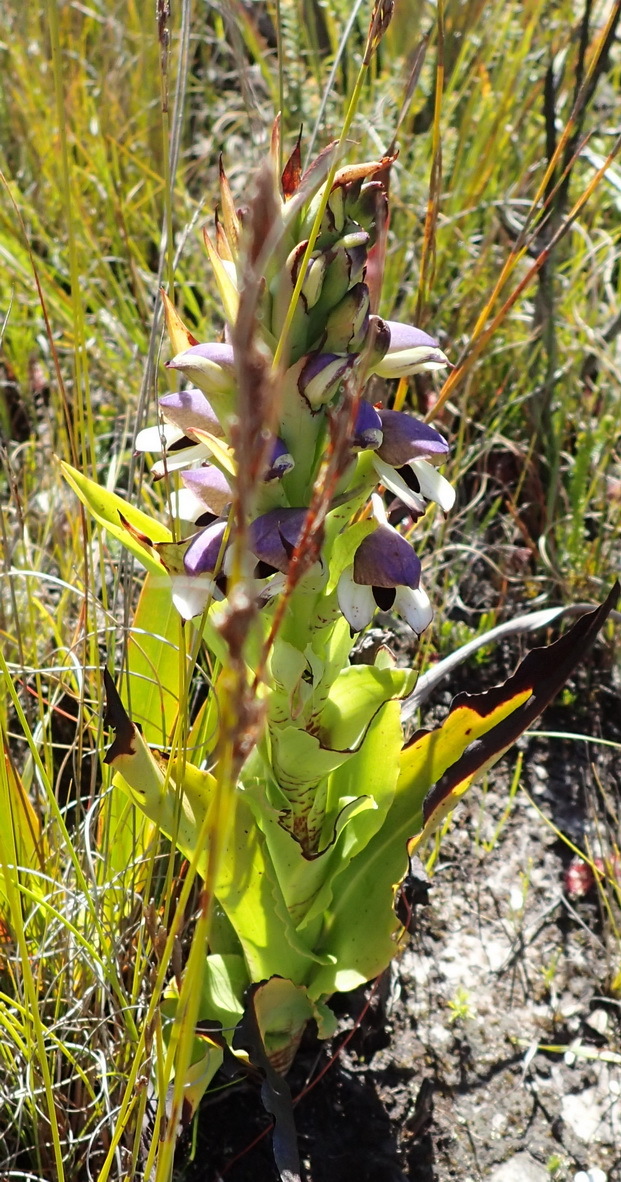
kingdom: Plantae
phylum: Tracheophyta
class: Liliopsida
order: Asparagales
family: Orchidaceae
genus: Disa
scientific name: Disa cornuta
